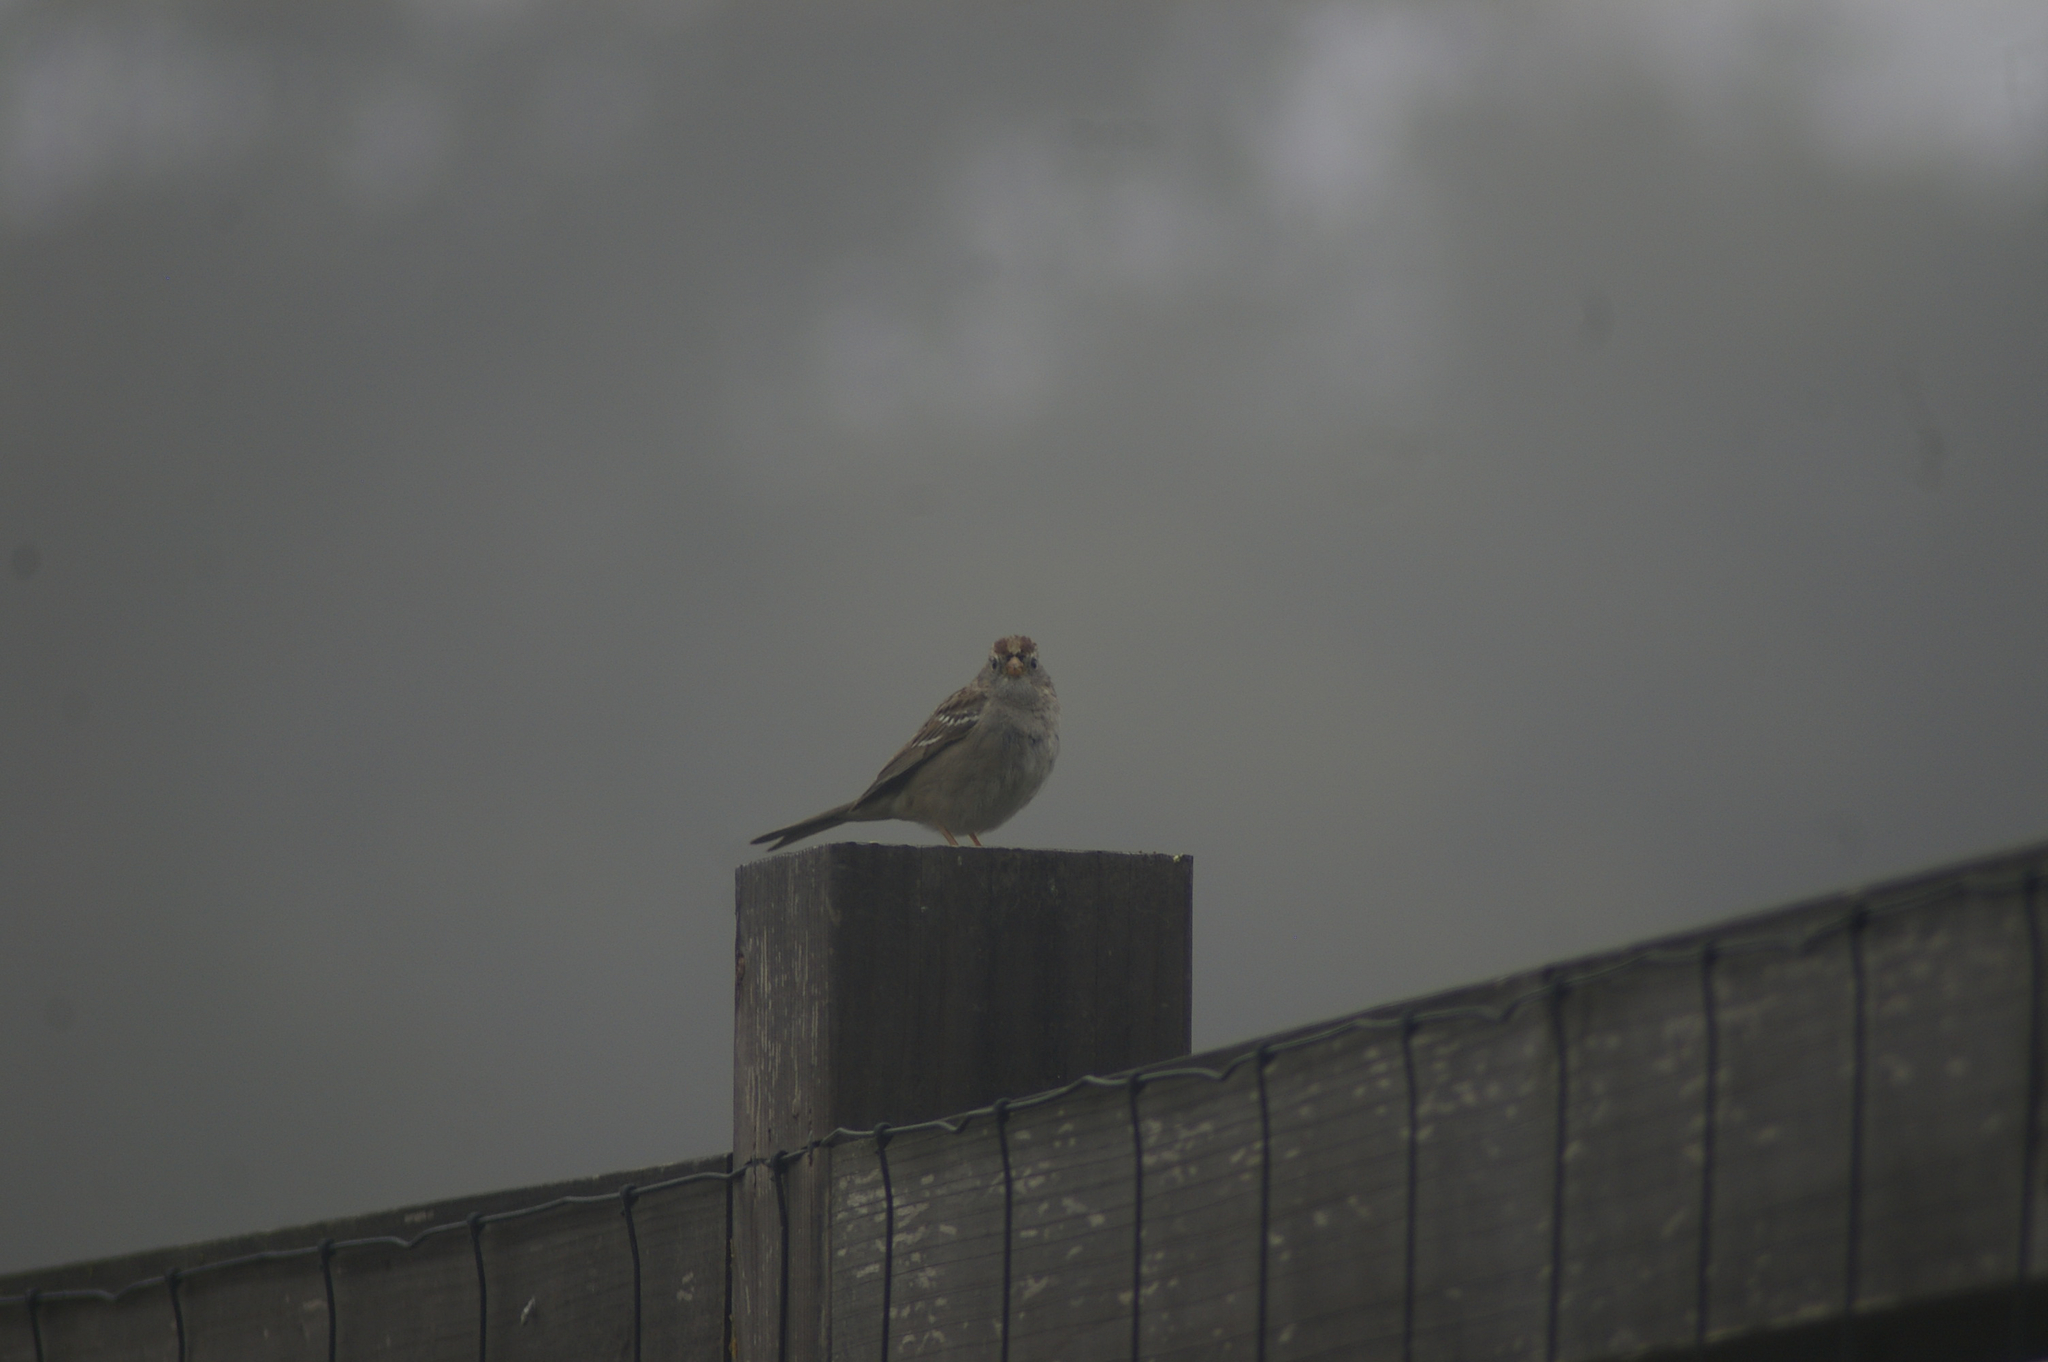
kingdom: Animalia
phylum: Chordata
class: Aves
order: Passeriformes
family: Passerellidae
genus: Zonotrichia
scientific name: Zonotrichia leucophrys
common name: White-crowned sparrow
